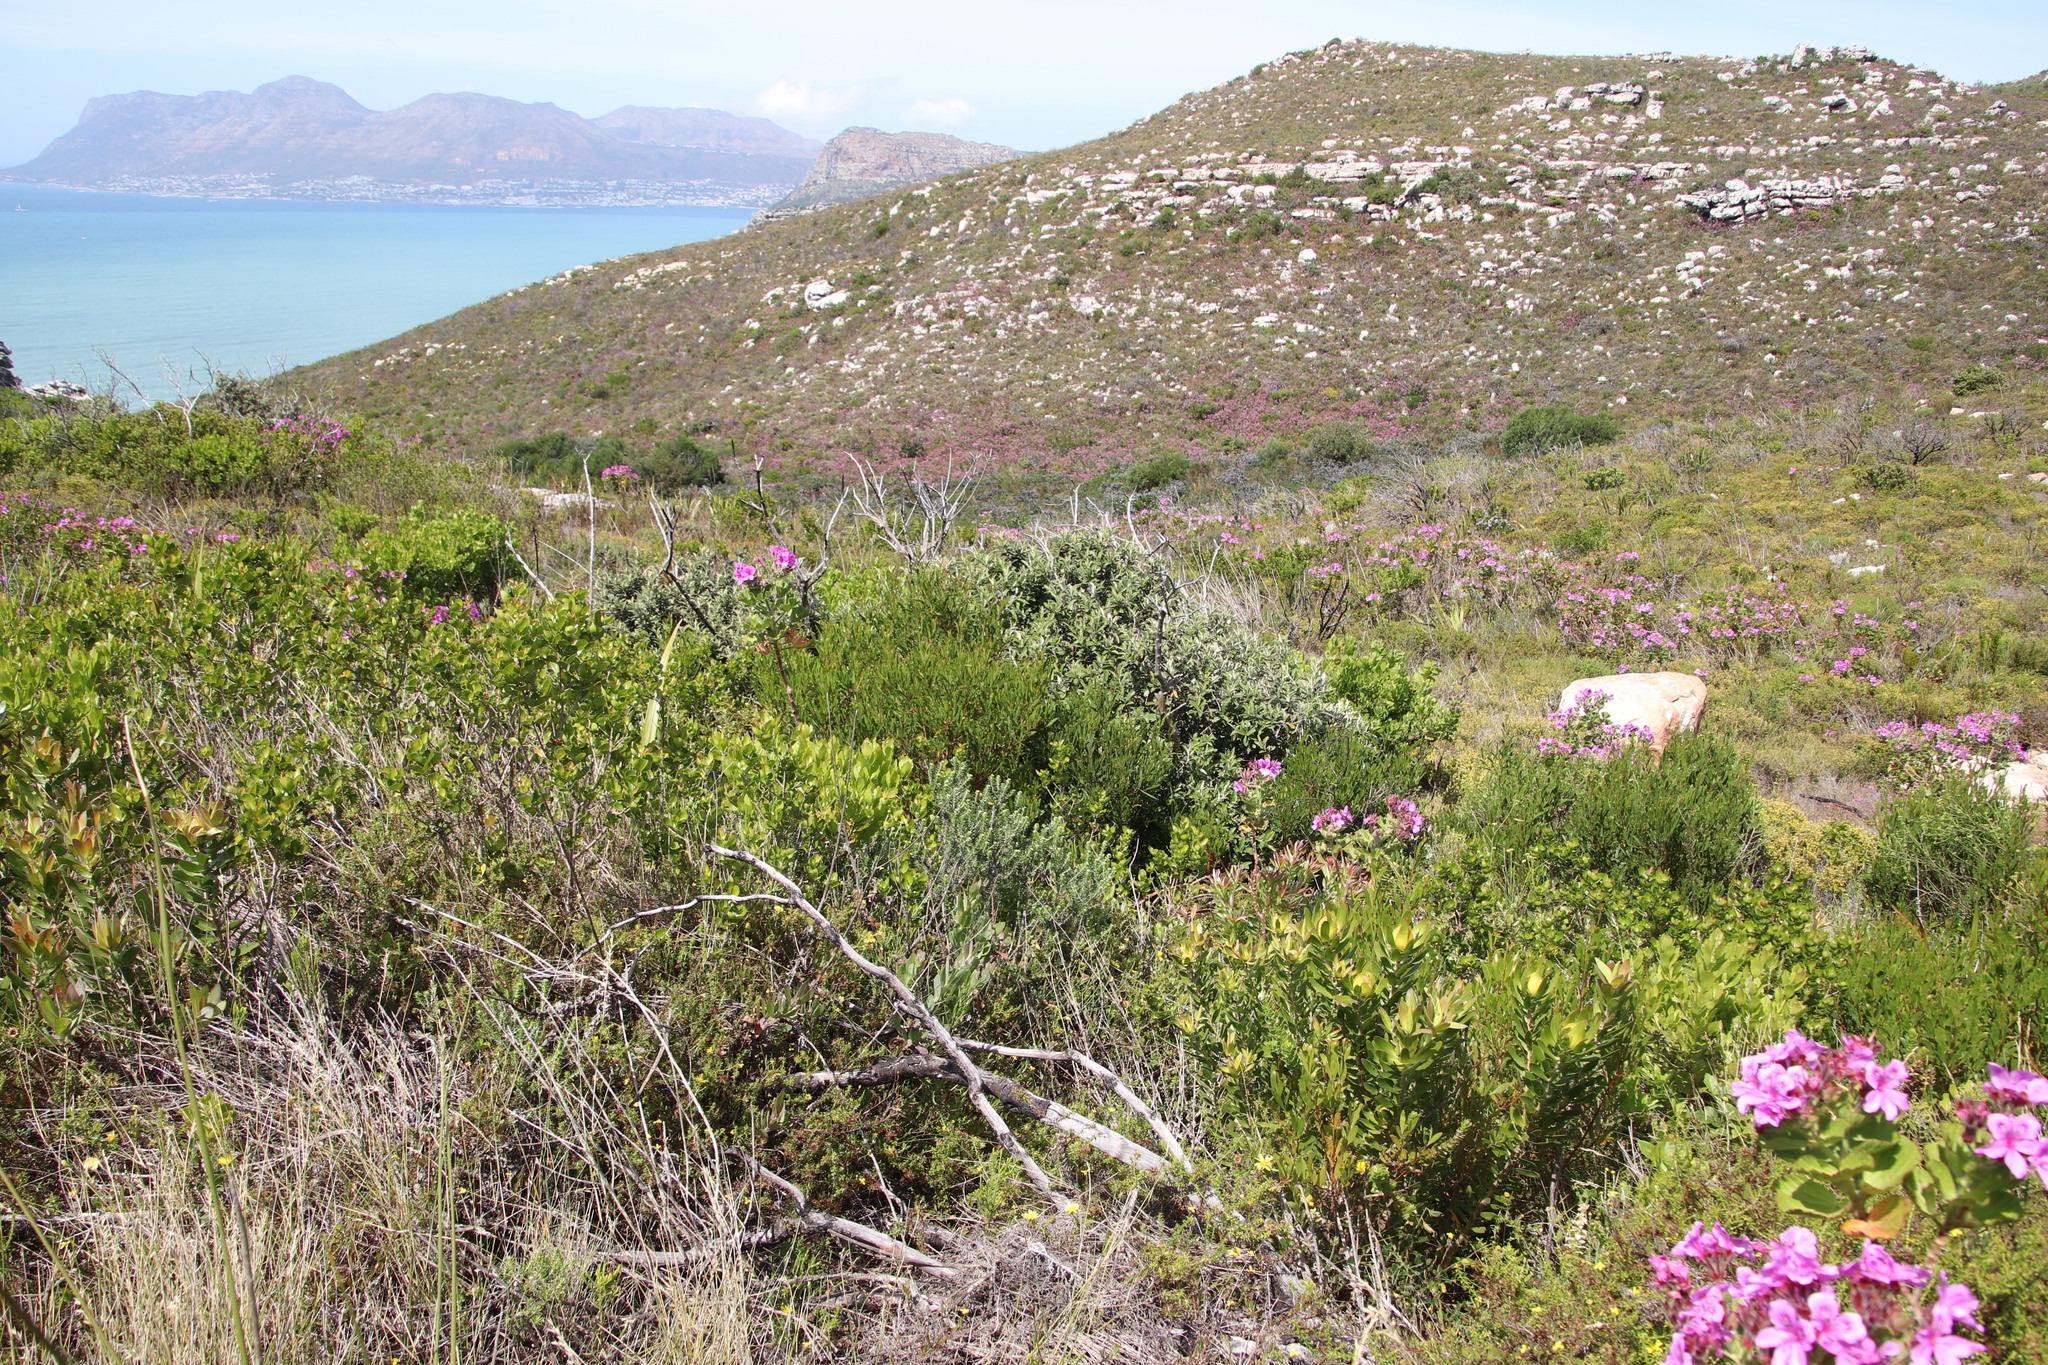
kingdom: Plantae
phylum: Tracheophyta
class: Magnoliopsida
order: Fabales
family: Fabaceae
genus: Acacia
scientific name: Acacia cyclops
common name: Coastal wattle
